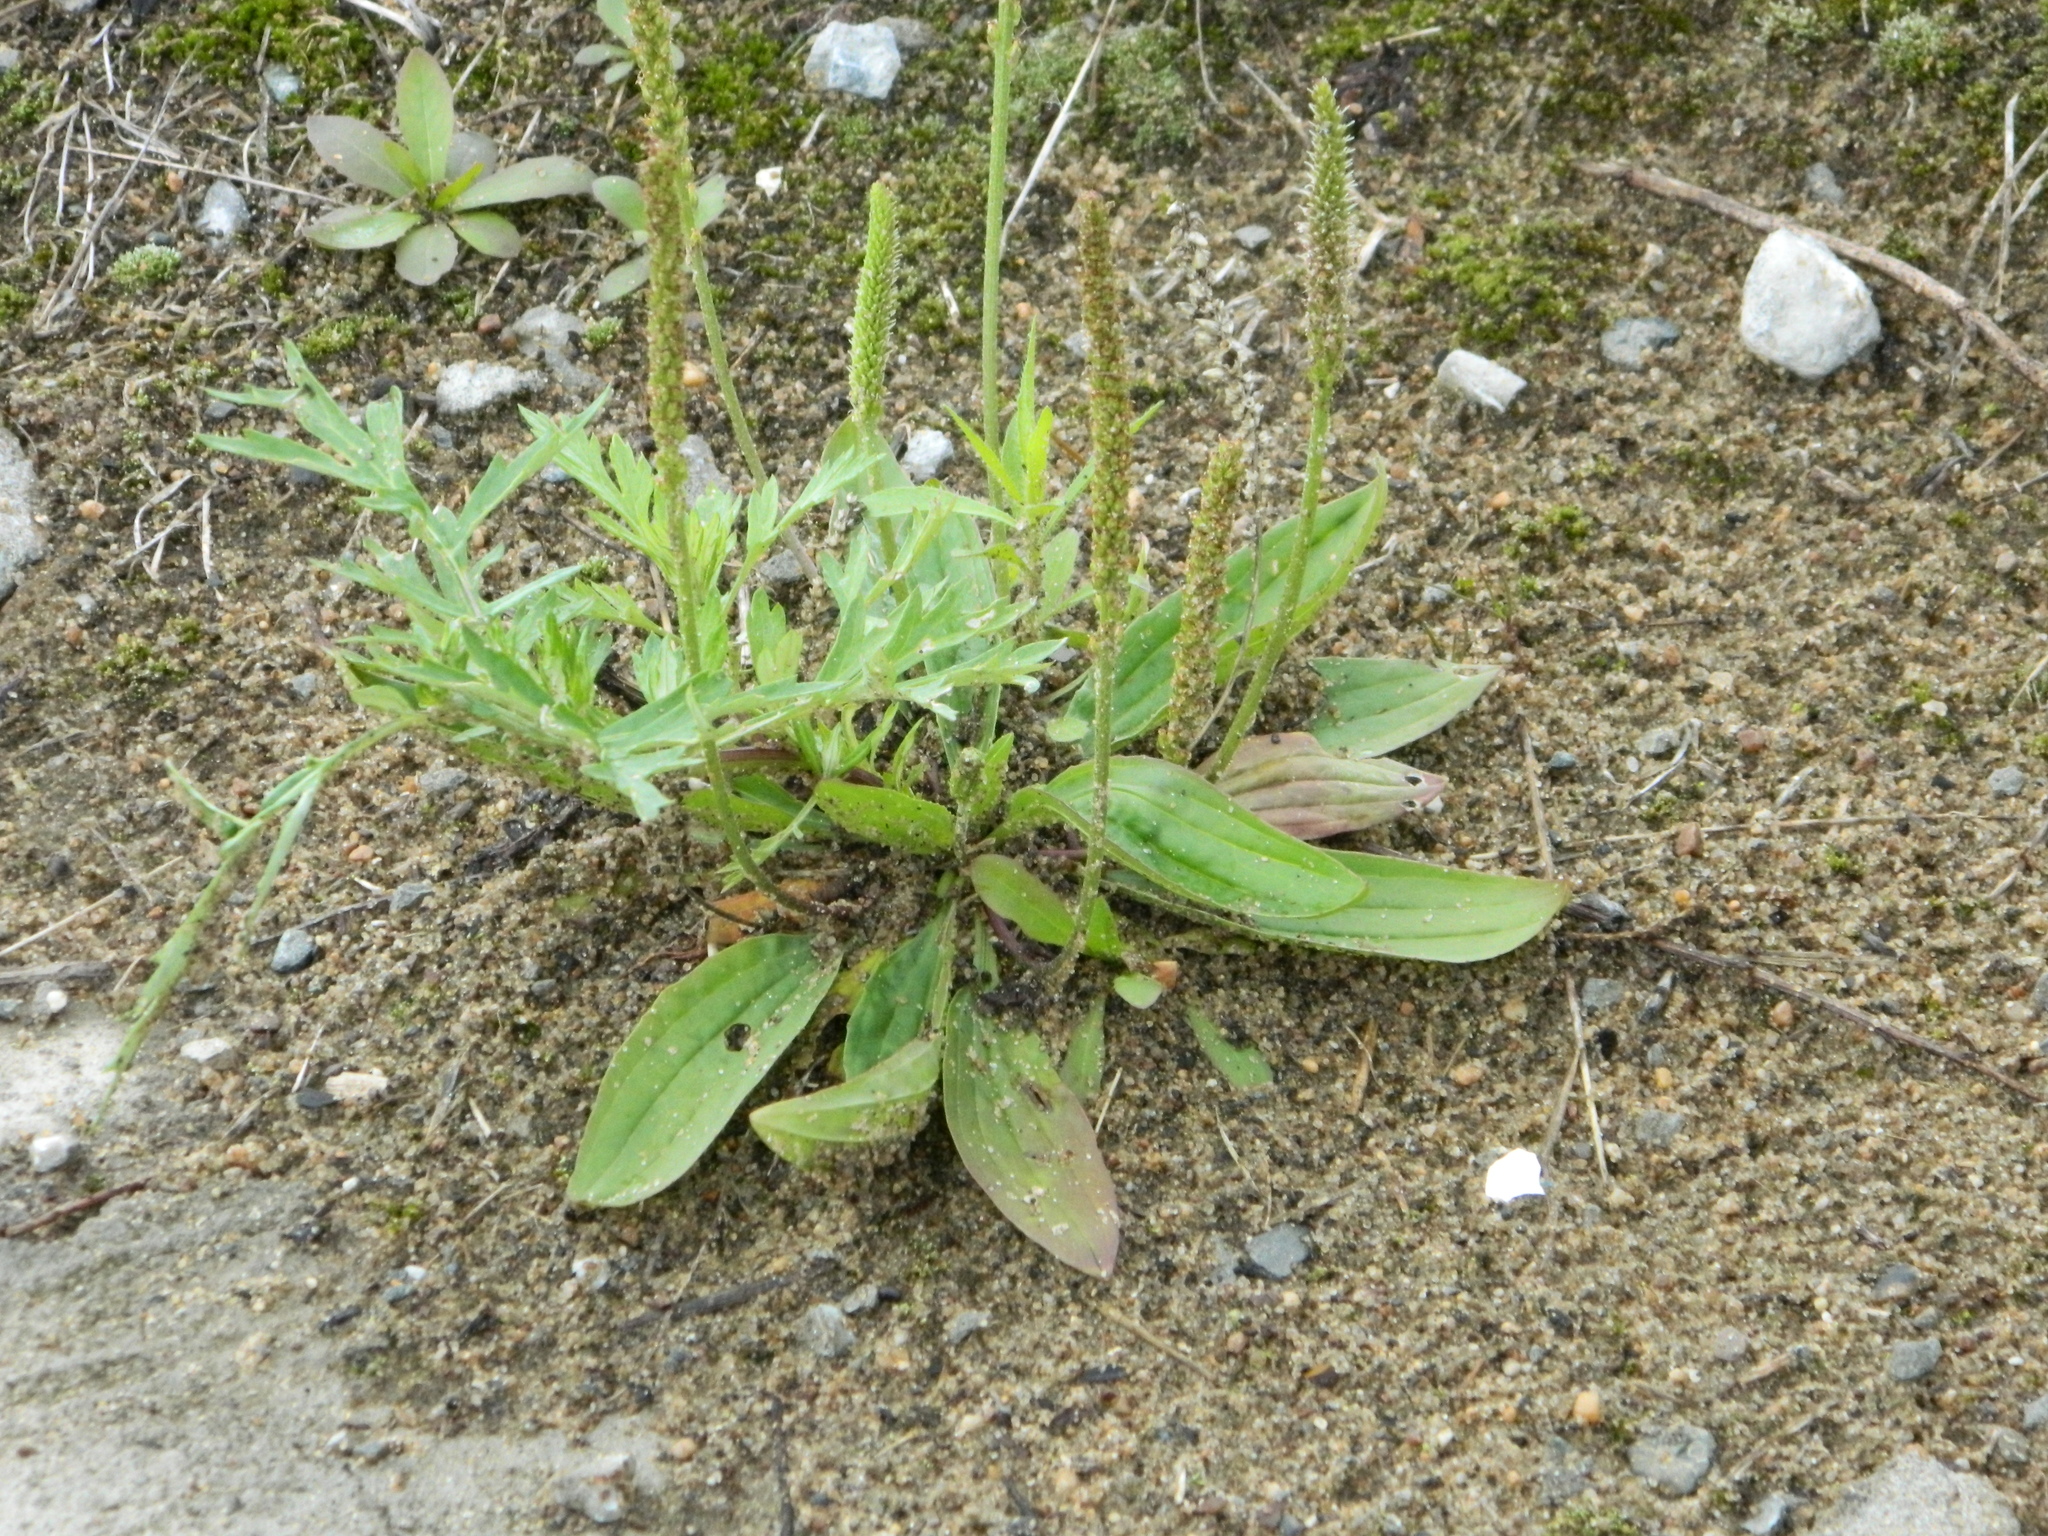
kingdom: Plantae
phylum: Tracheophyta
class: Magnoliopsida
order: Lamiales
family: Plantaginaceae
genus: Plantago
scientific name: Plantago depressa
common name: Depressed plantain
